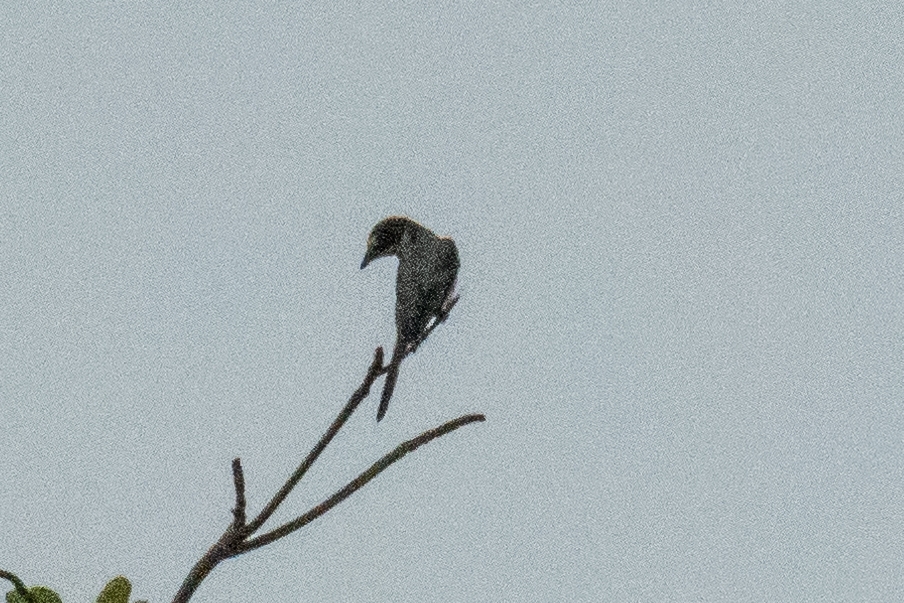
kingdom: Animalia
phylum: Chordata
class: Aves
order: Passeriformes
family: Campephagidae
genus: Pericrocotus
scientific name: Pericrocotus divaricatus
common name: Ashy minivet
